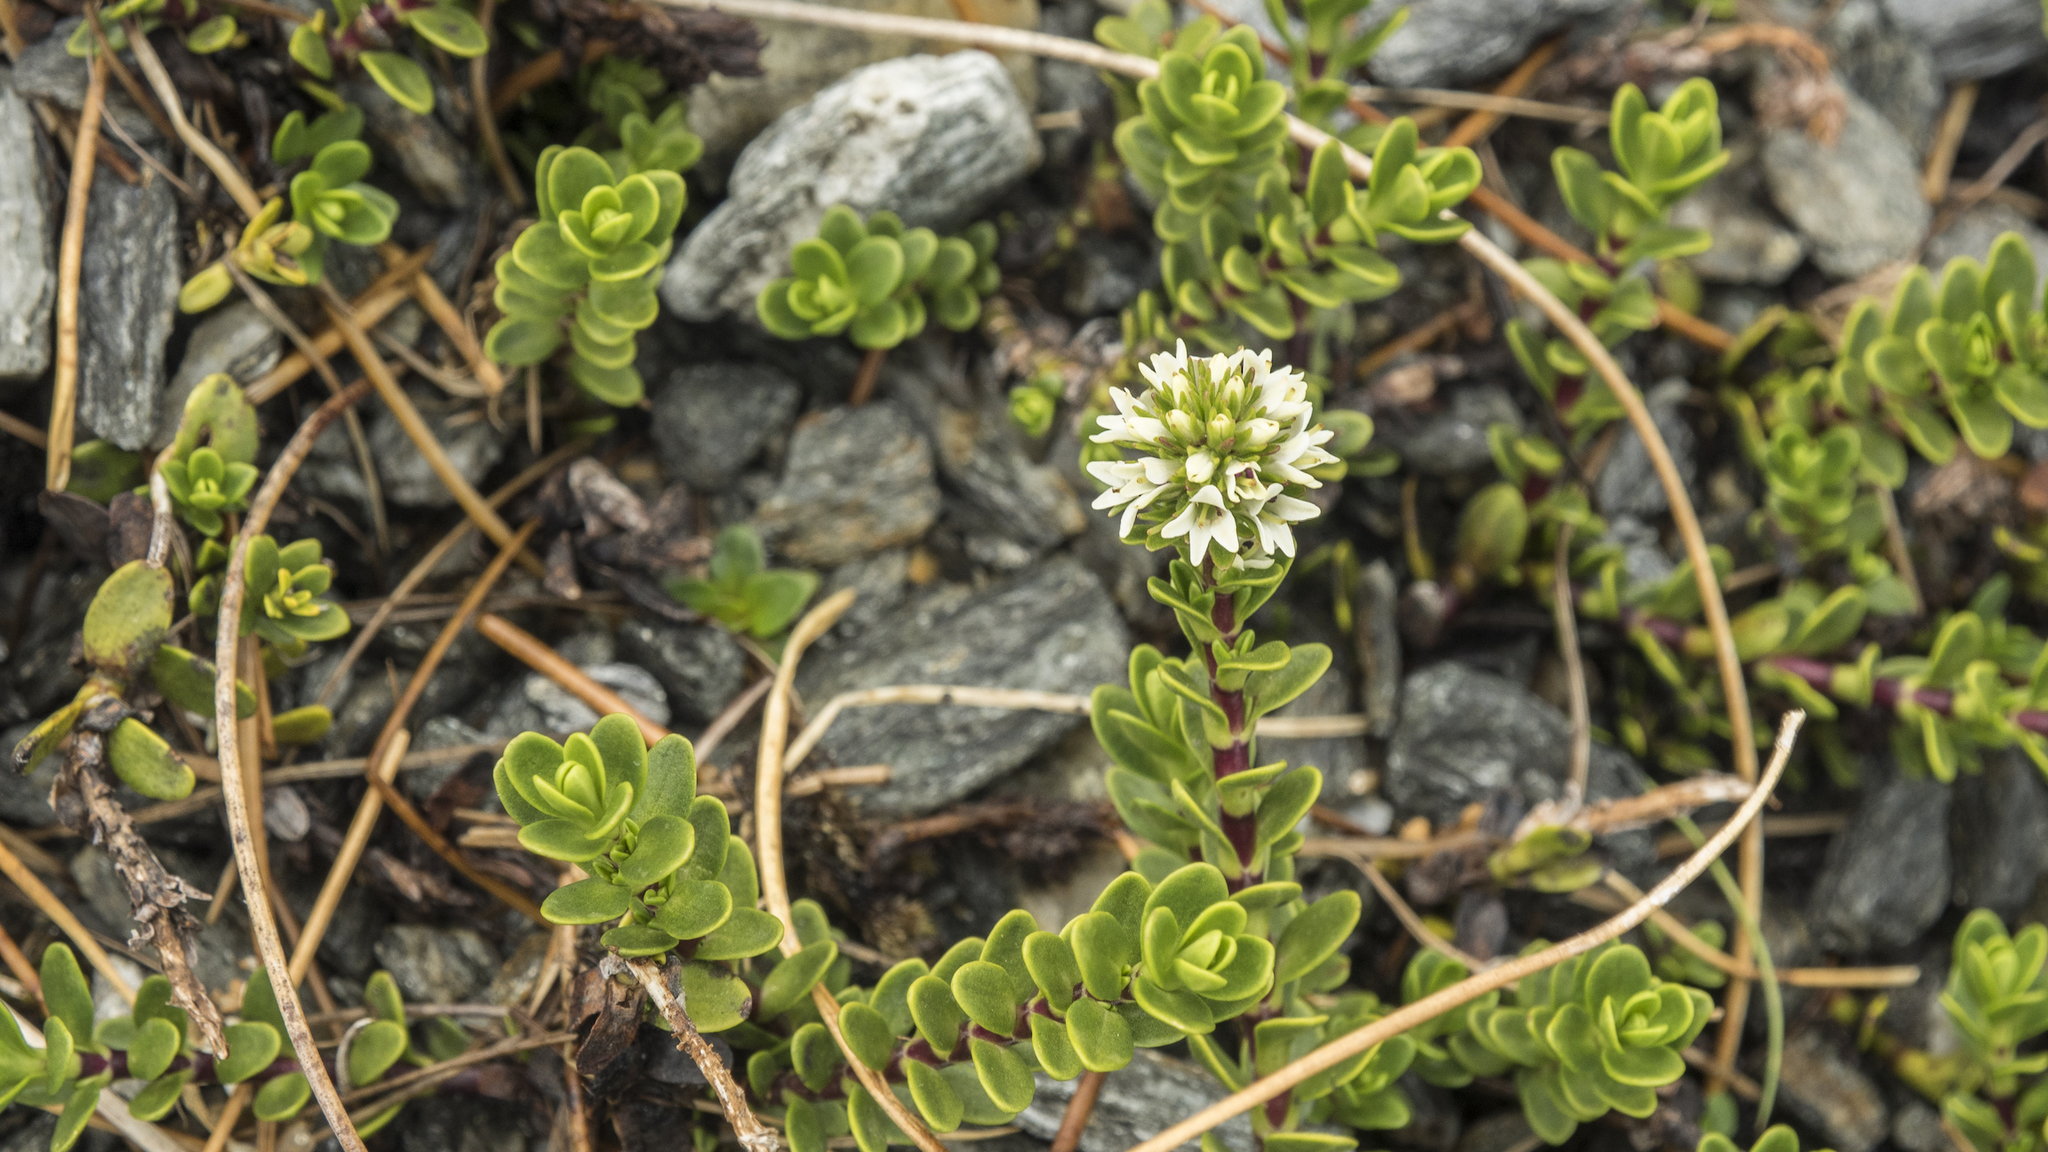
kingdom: Plantae
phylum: Tracheophyta
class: Magnoliopsida
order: Lamiales
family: Plantaginaceae
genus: Veronica
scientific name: Veronica petriei
